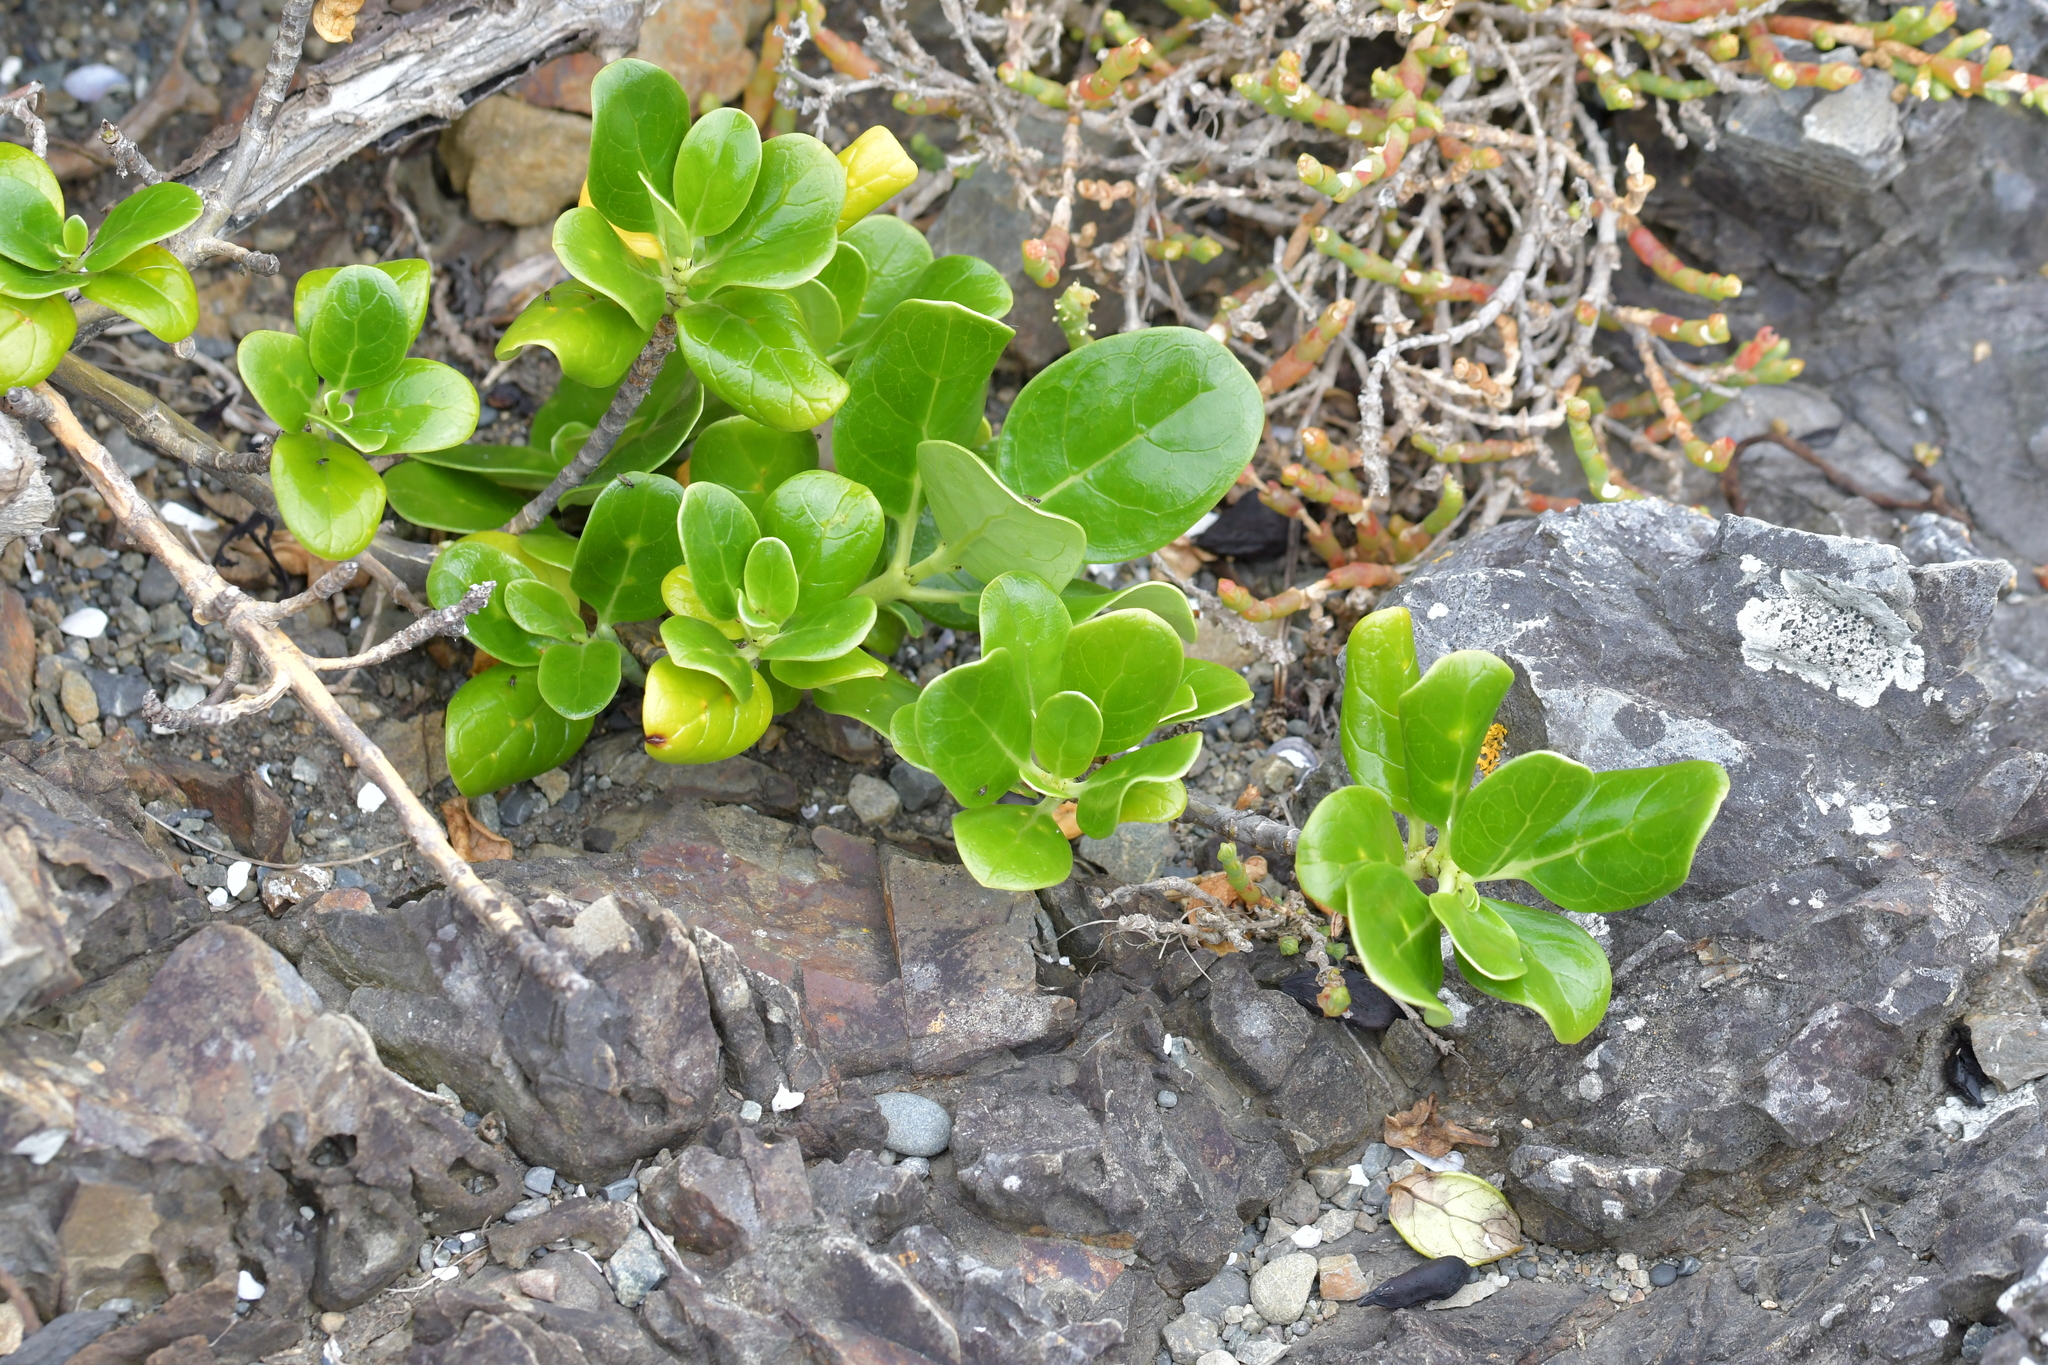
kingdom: Plantae
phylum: Tracheophyta
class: Magnoliopsida
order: Gentianales
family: Rubiaceae
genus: Coprosma
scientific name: Coprosma repens
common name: Tree bedstraw
